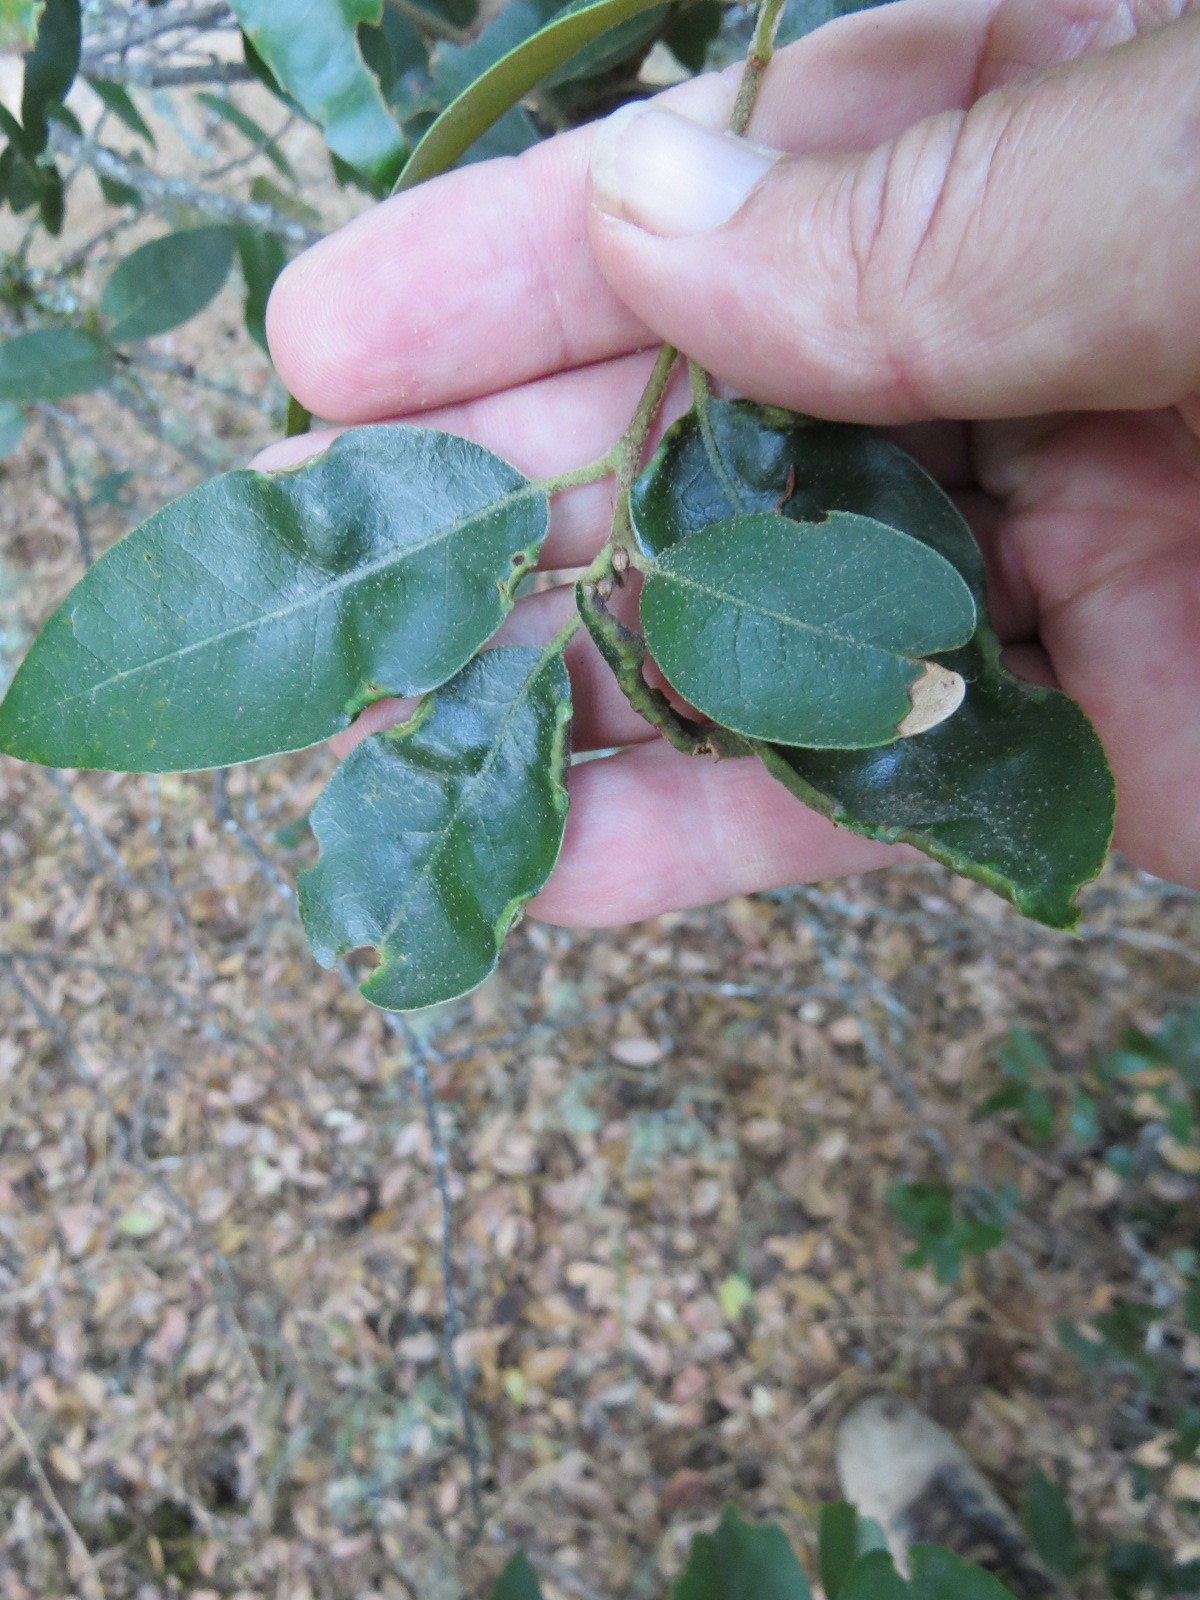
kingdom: Animalia
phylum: Arthropoda
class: Insecta
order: Diptera
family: Cecidomyiidae
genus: Dasineura
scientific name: Dasineura silvestrii
